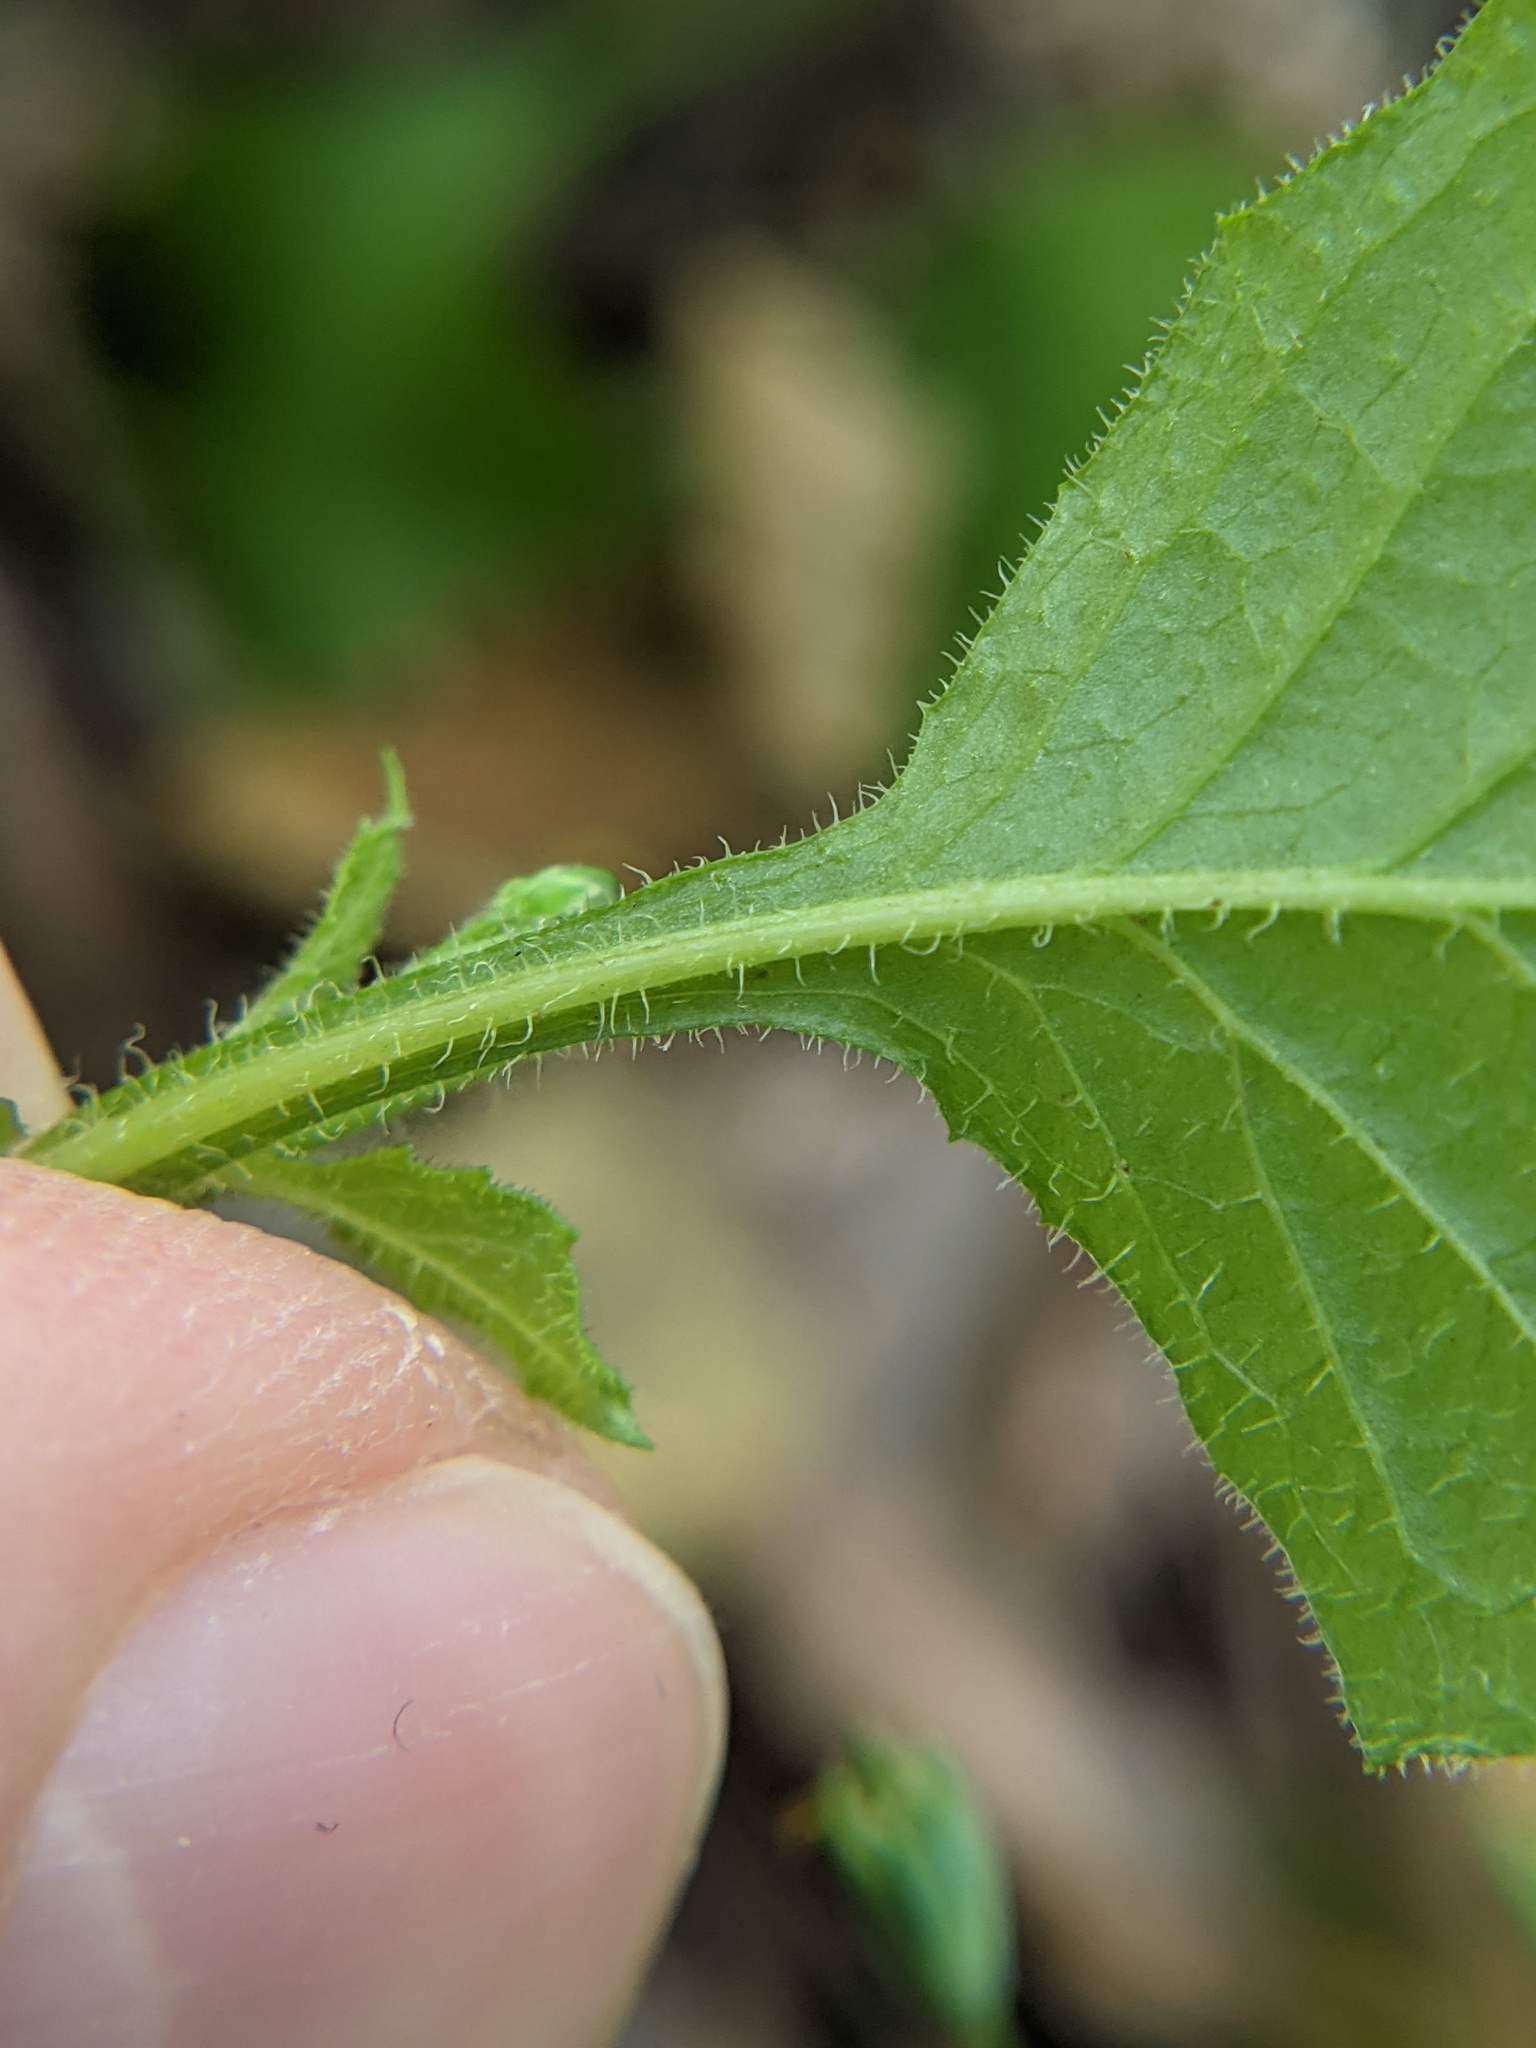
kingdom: Plantae
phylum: Tracheophyta
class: Magnoliopsida
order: Asterales
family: Asteraceae
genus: Lapsana
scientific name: Lapsana communis
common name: Nipplewort
